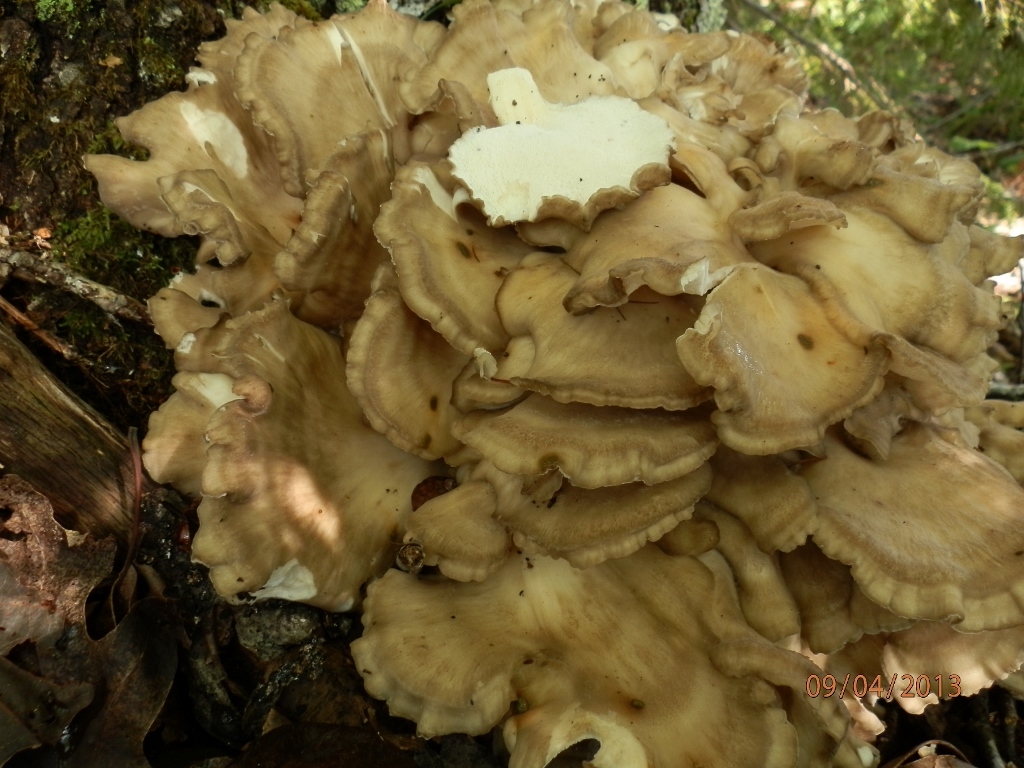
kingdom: Fungi
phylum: Basidiomycota
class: Agaricomycetes
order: Polyporales
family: Grifolaceae
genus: Grifola
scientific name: Grifola frondosa
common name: Hen of the woods
